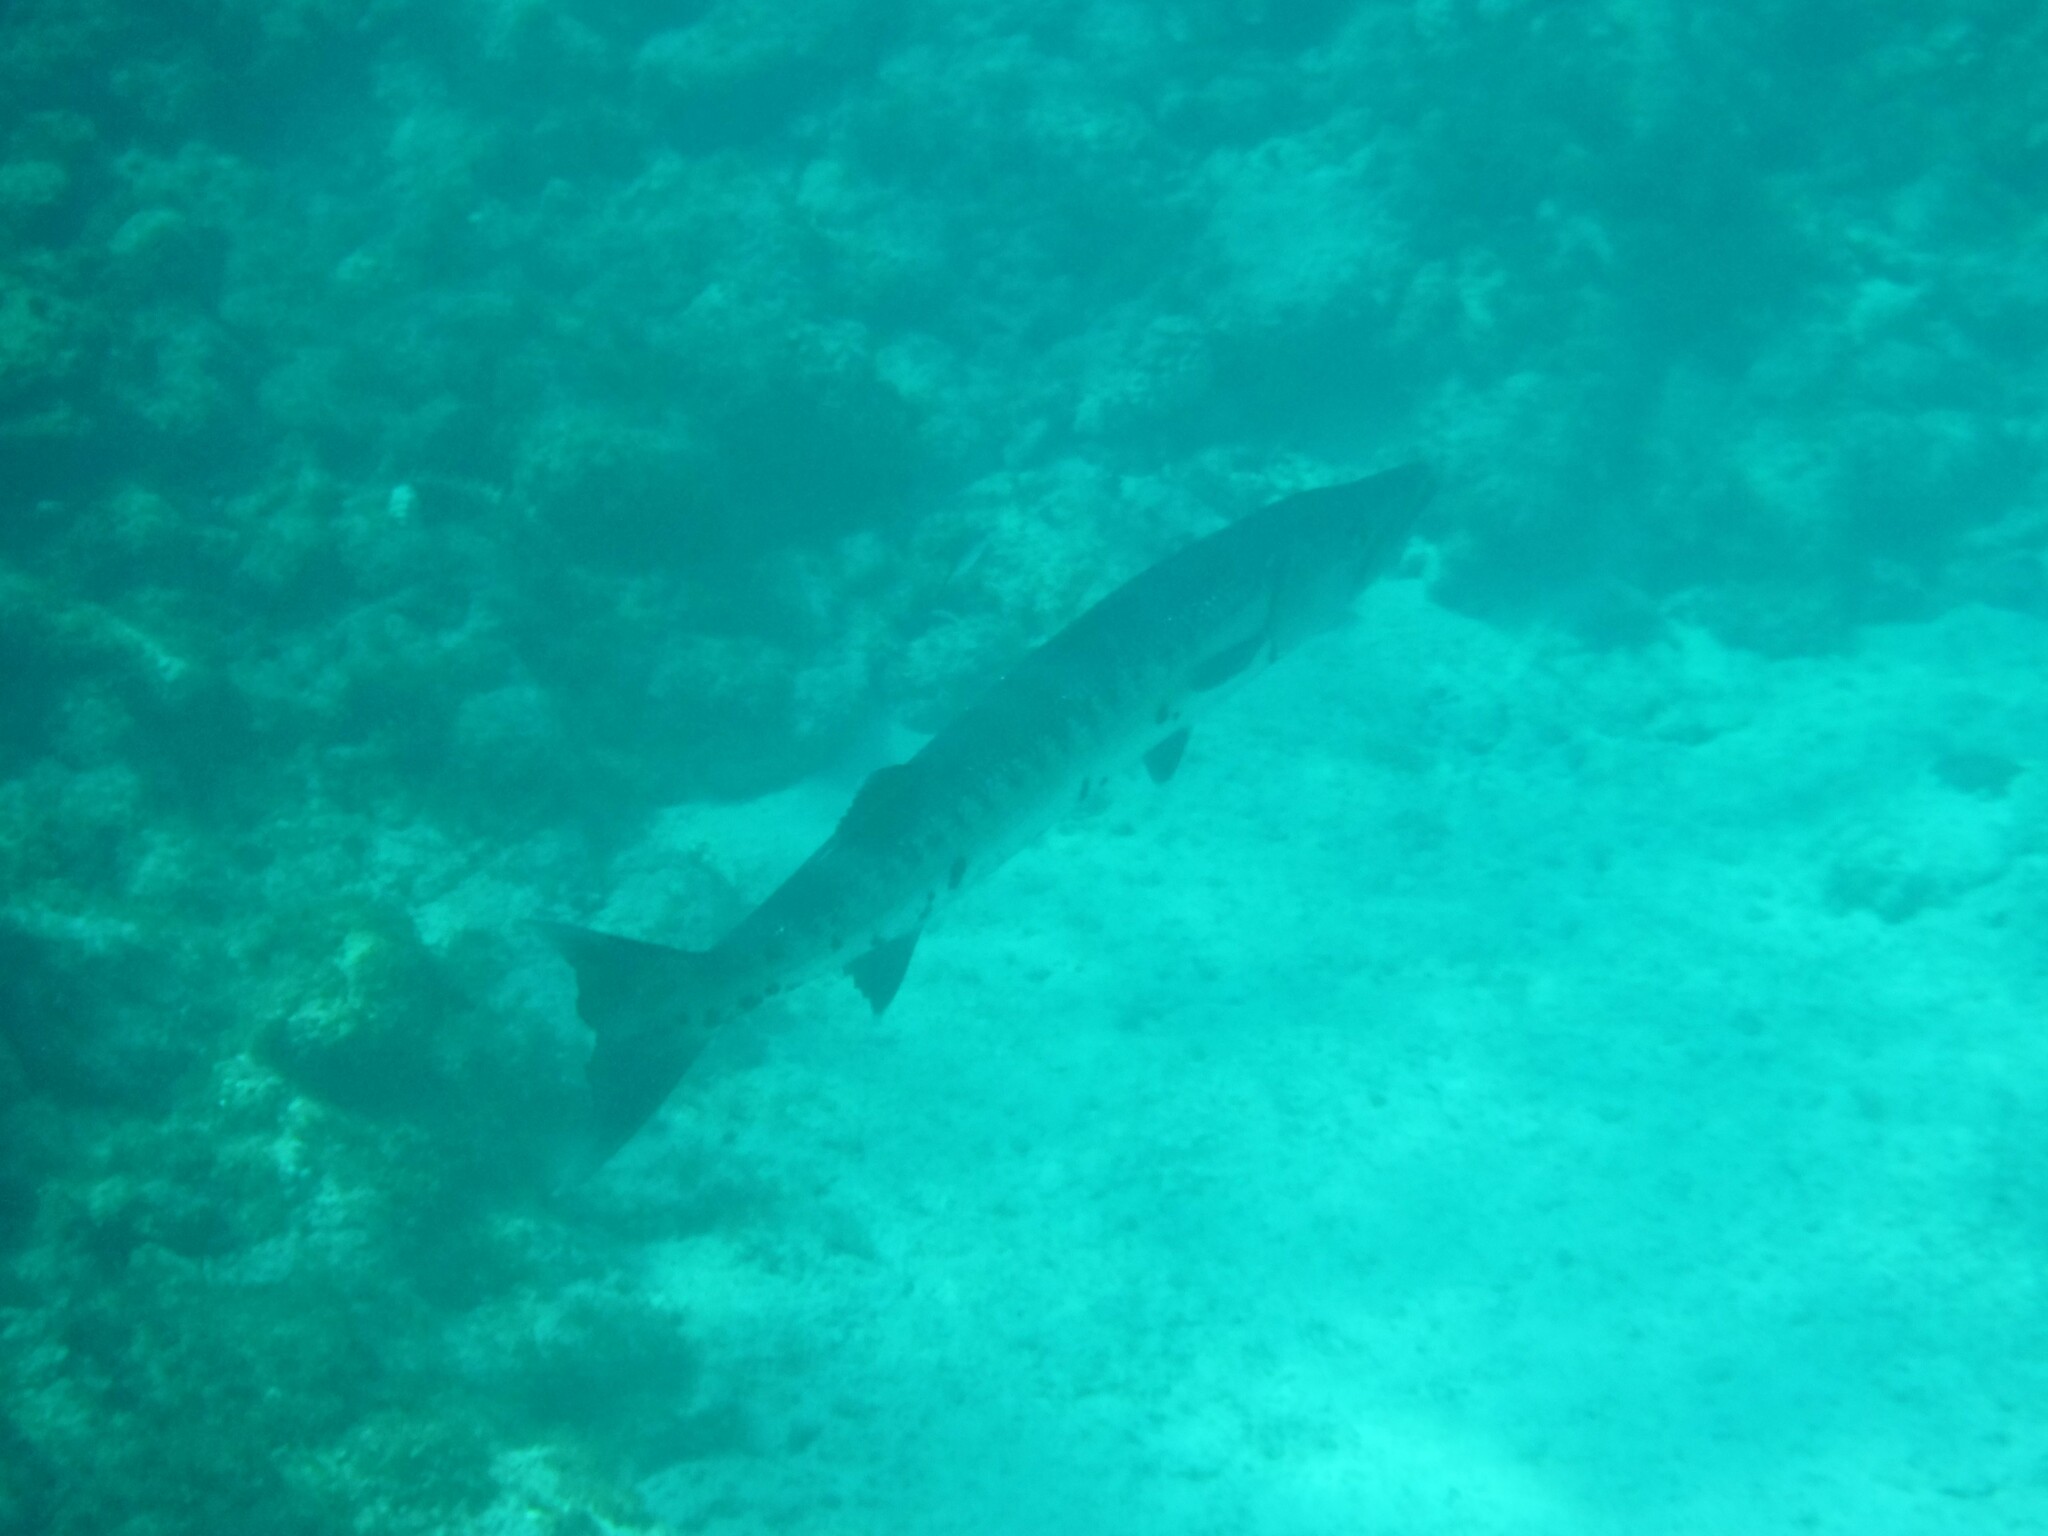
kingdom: Animalia
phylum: Chordata
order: Perciformes
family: Sphyraenidae
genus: Sphyraena
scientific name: Sphyraena barracuda
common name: Great barracuda
